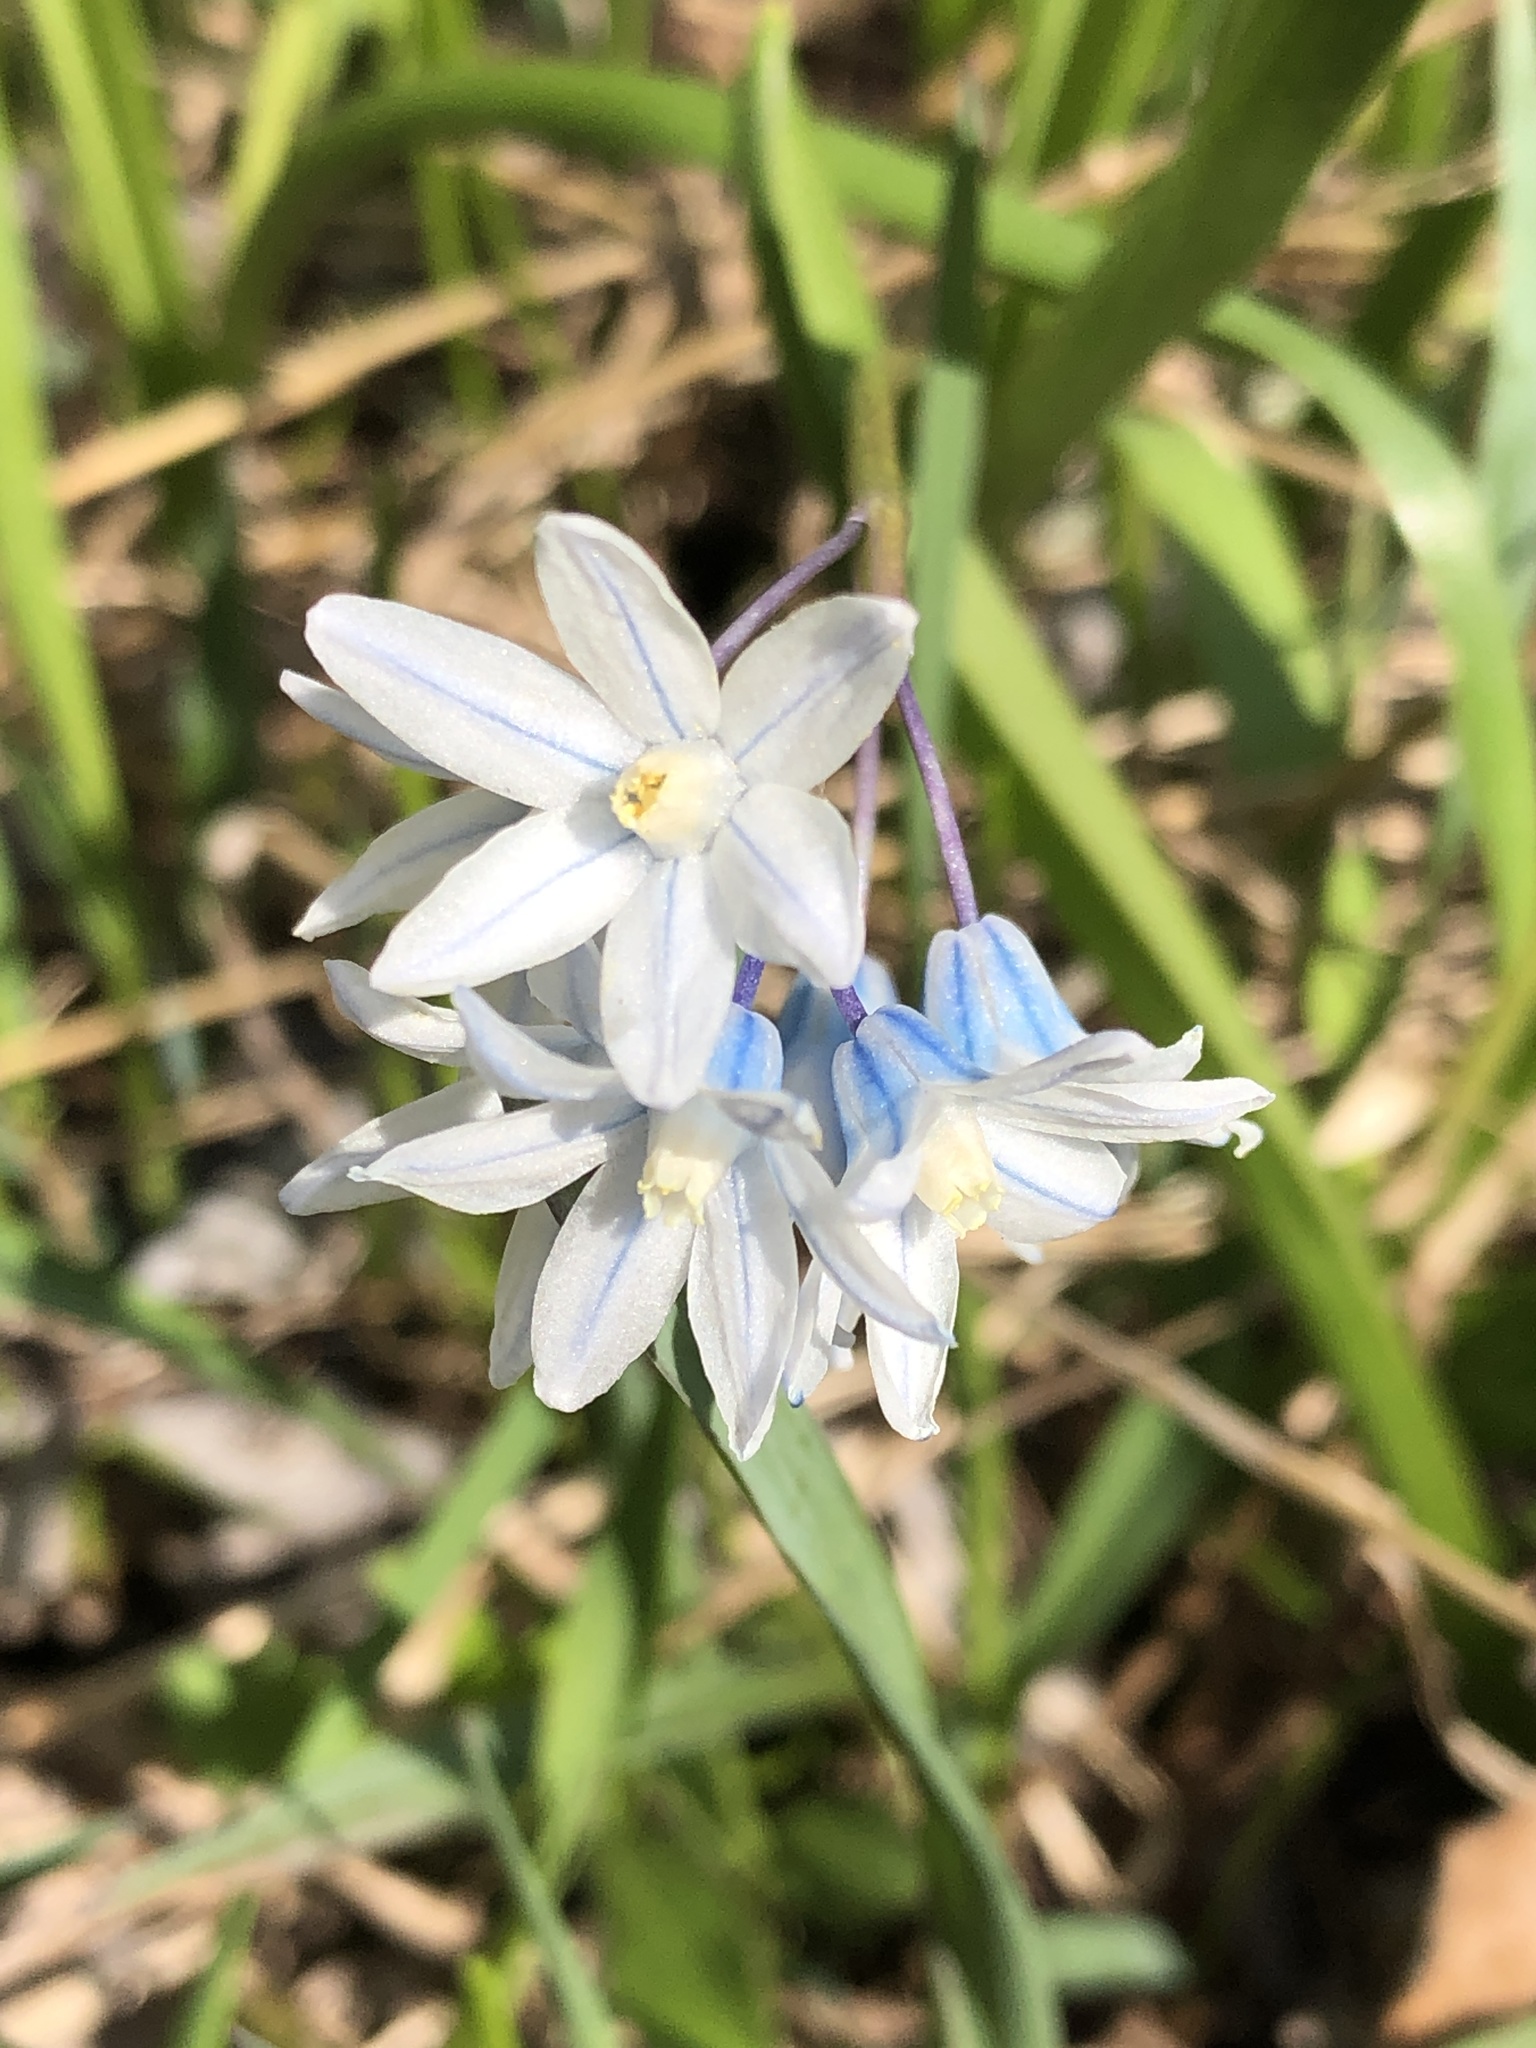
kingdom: Plantae
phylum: Tracheophyta
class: Liliopsida
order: Asparagales
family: Asparagaceae
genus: Puschkinia
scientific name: Puschkinia scilloides
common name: Striped squill
